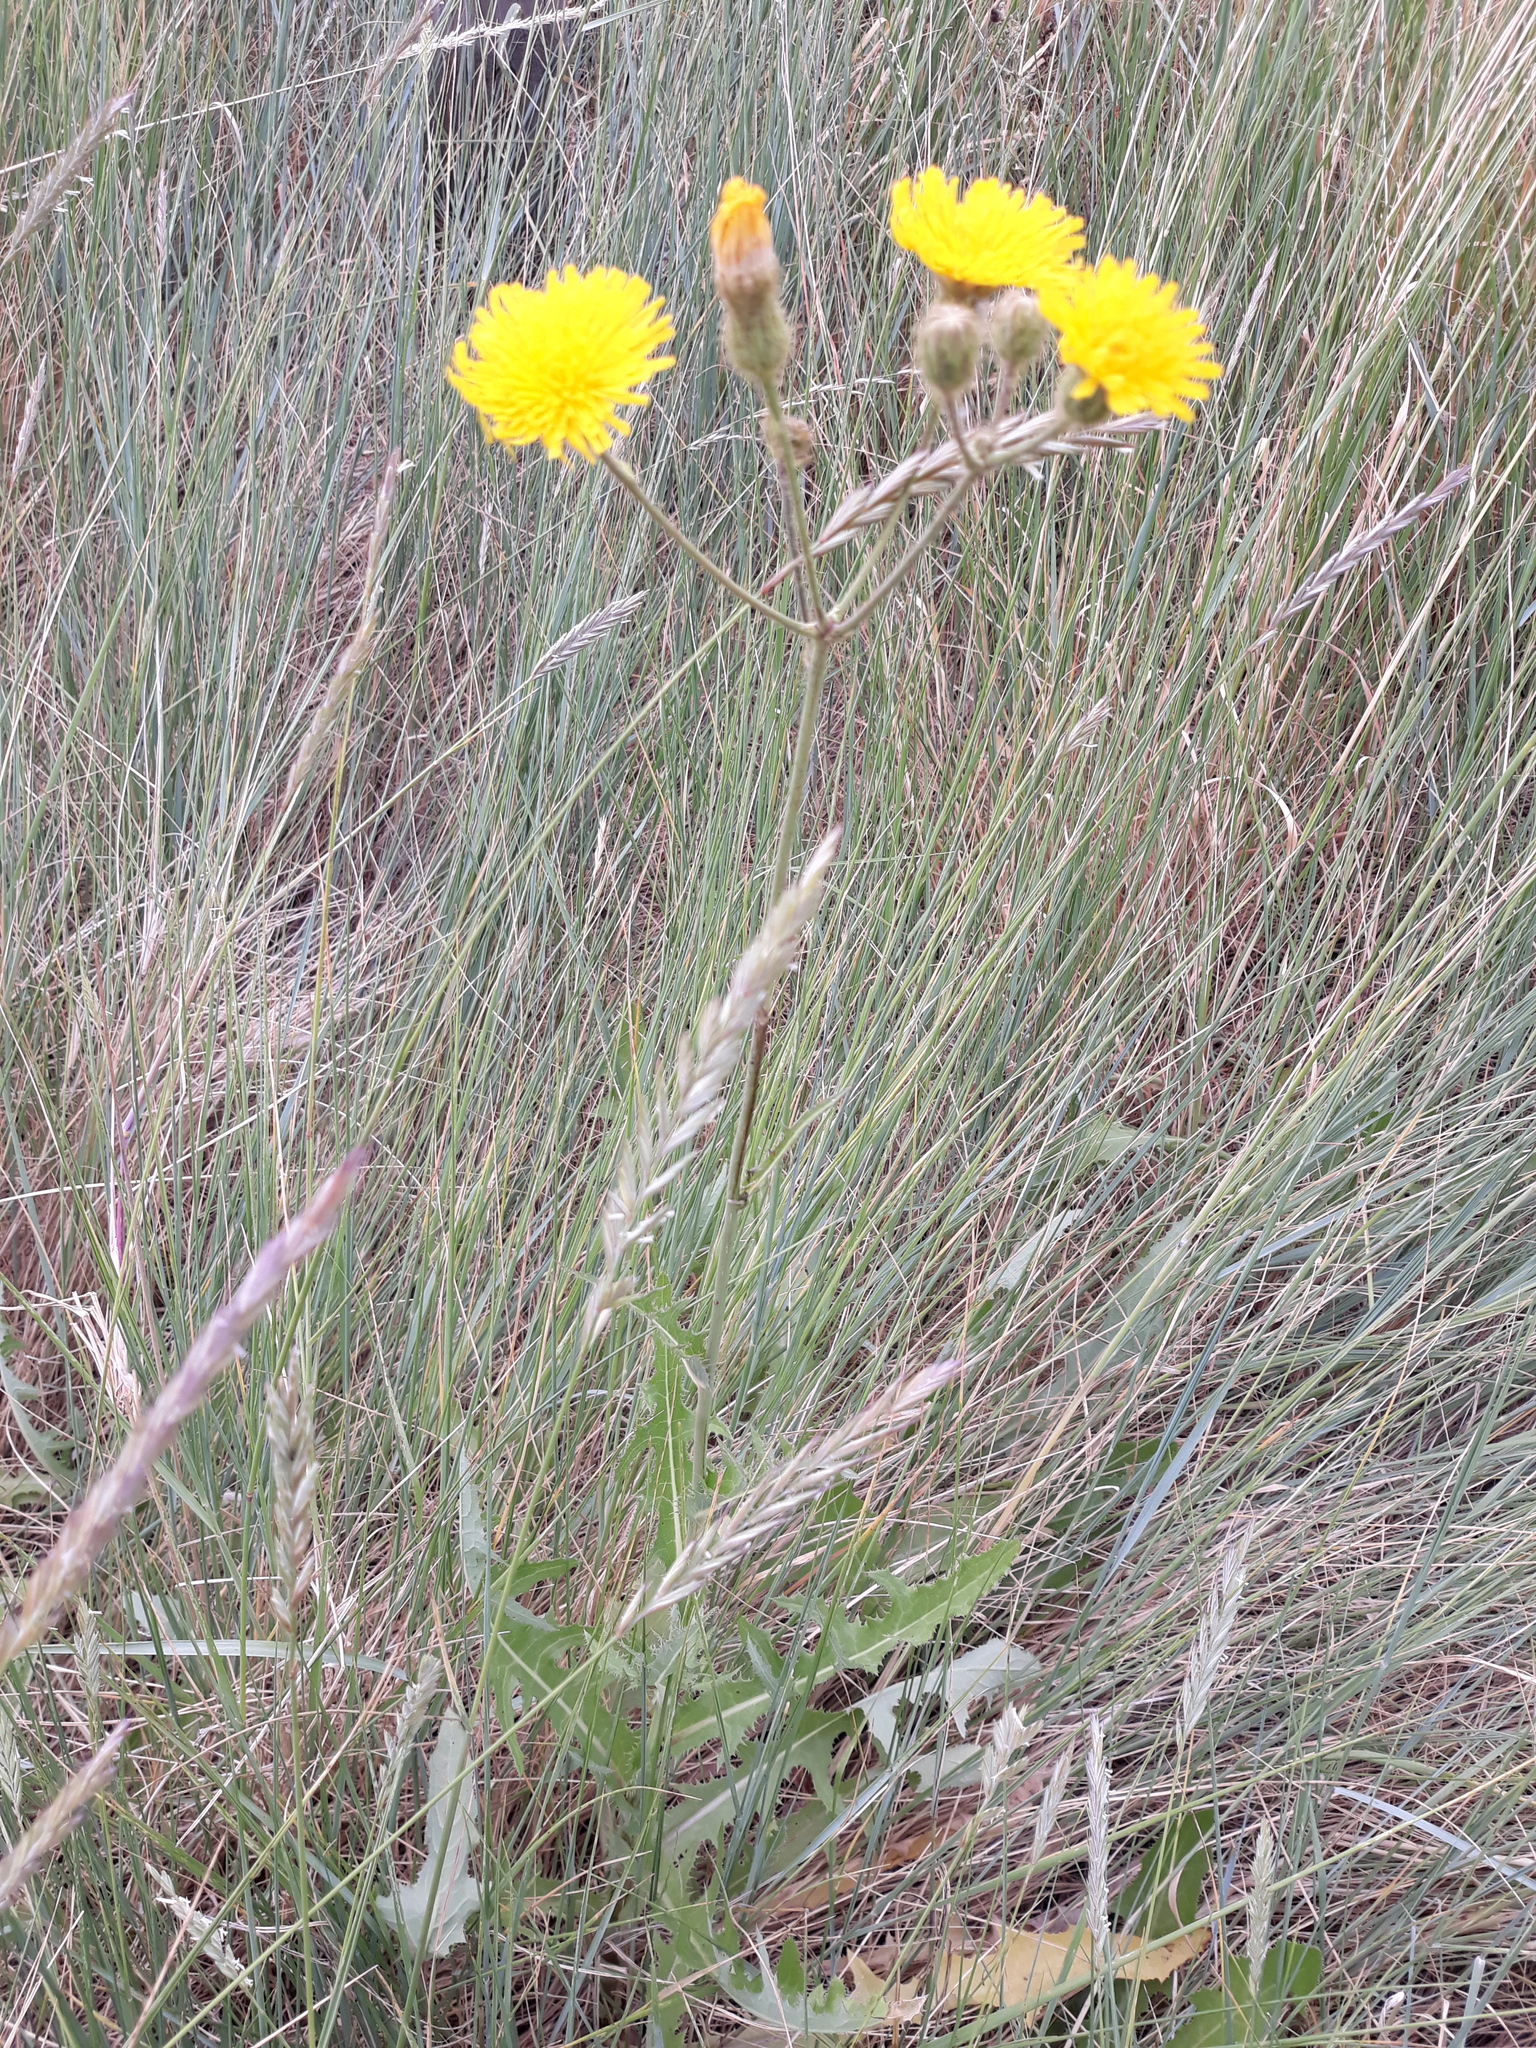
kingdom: Plantae
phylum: Tracheophyta
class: Magnoliopsida
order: Asterales
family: Asteraceae
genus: Sonchus
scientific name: Sonchus arvensis
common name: Perennial sow-thistle
